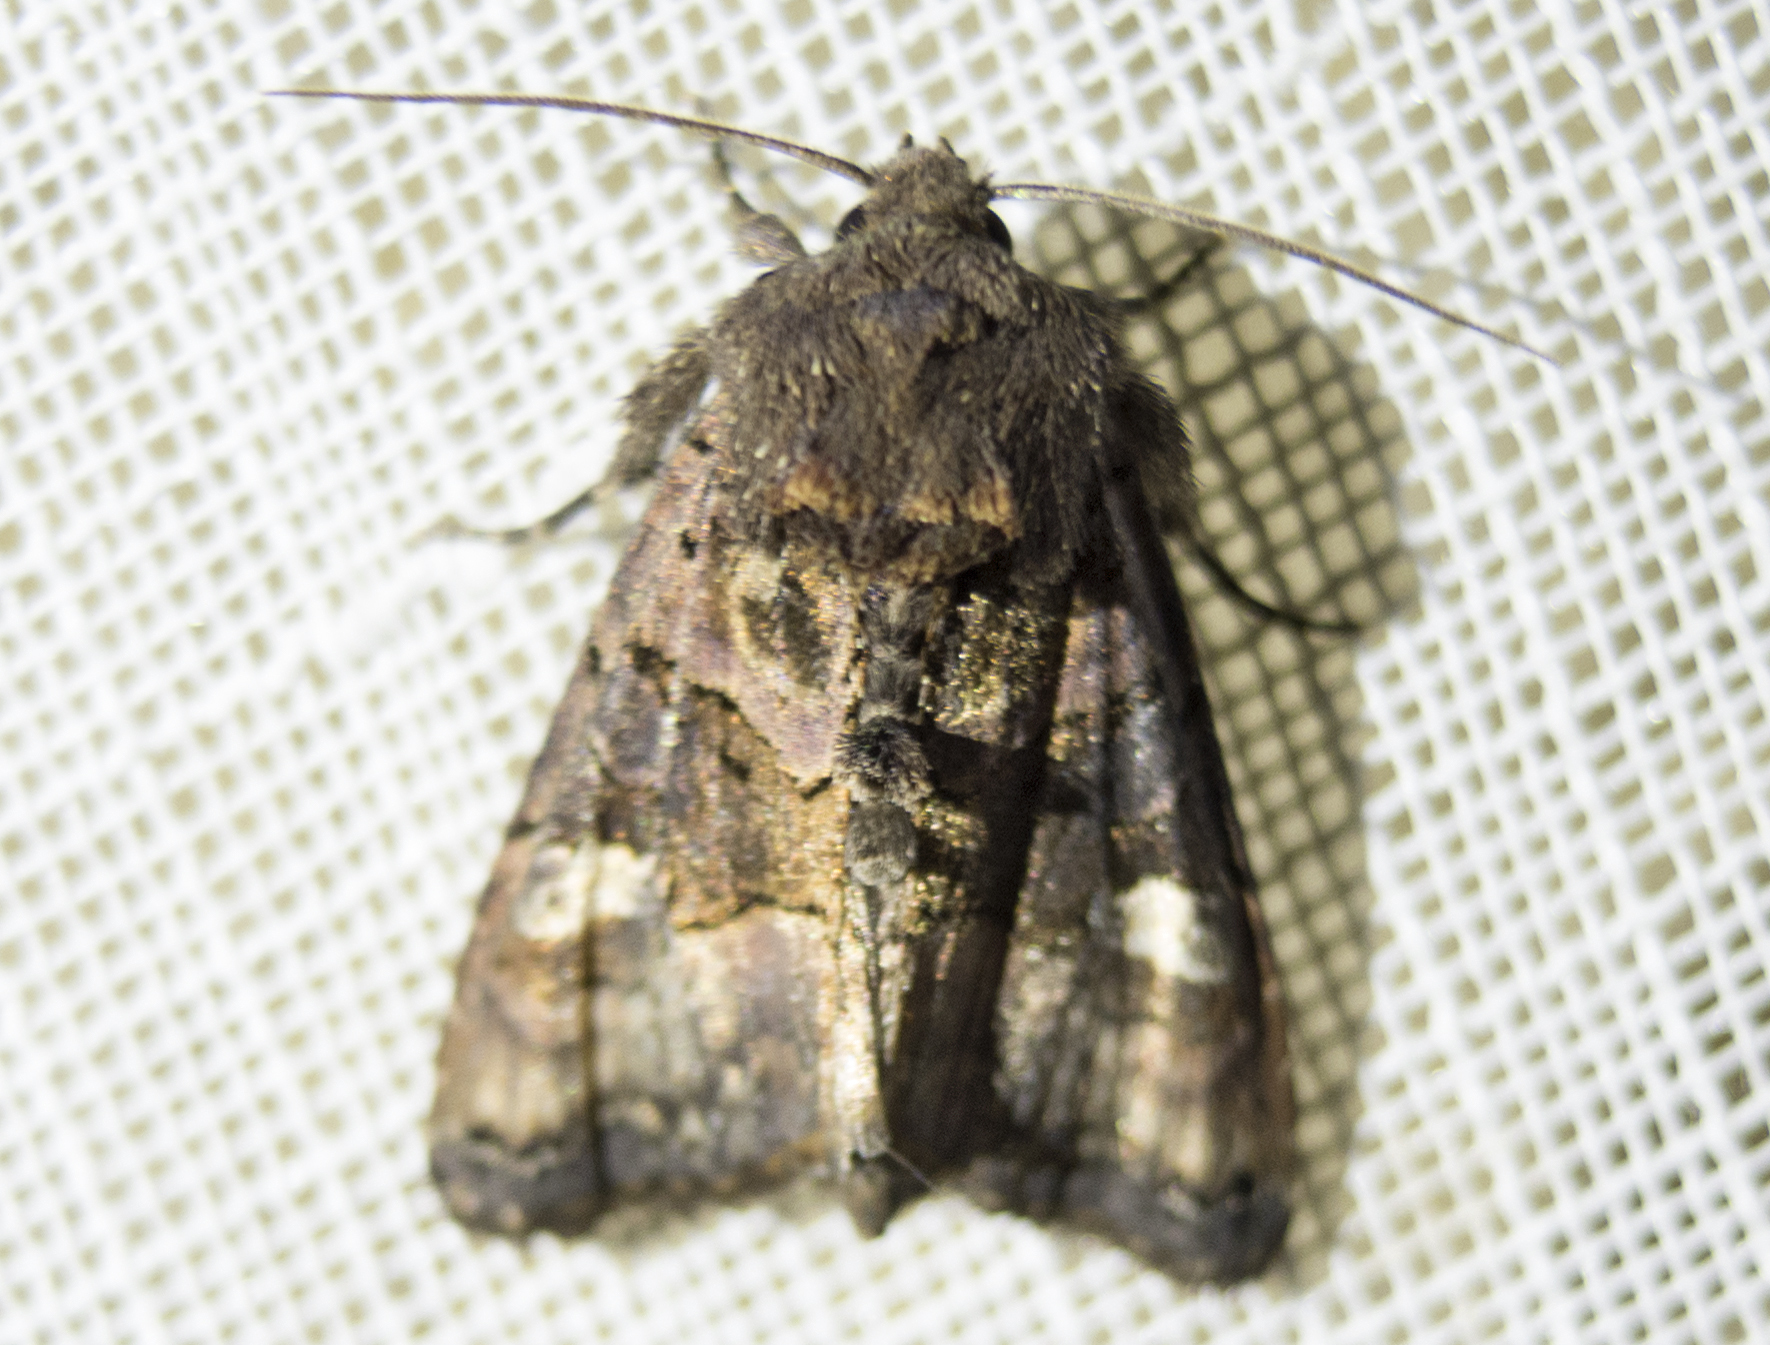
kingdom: Animalia
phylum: Arthropoda
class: Insecta
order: Lepidoptera
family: Noctuidae
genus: Euplexia
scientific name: Euplexia lucipara
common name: Small angle shades
